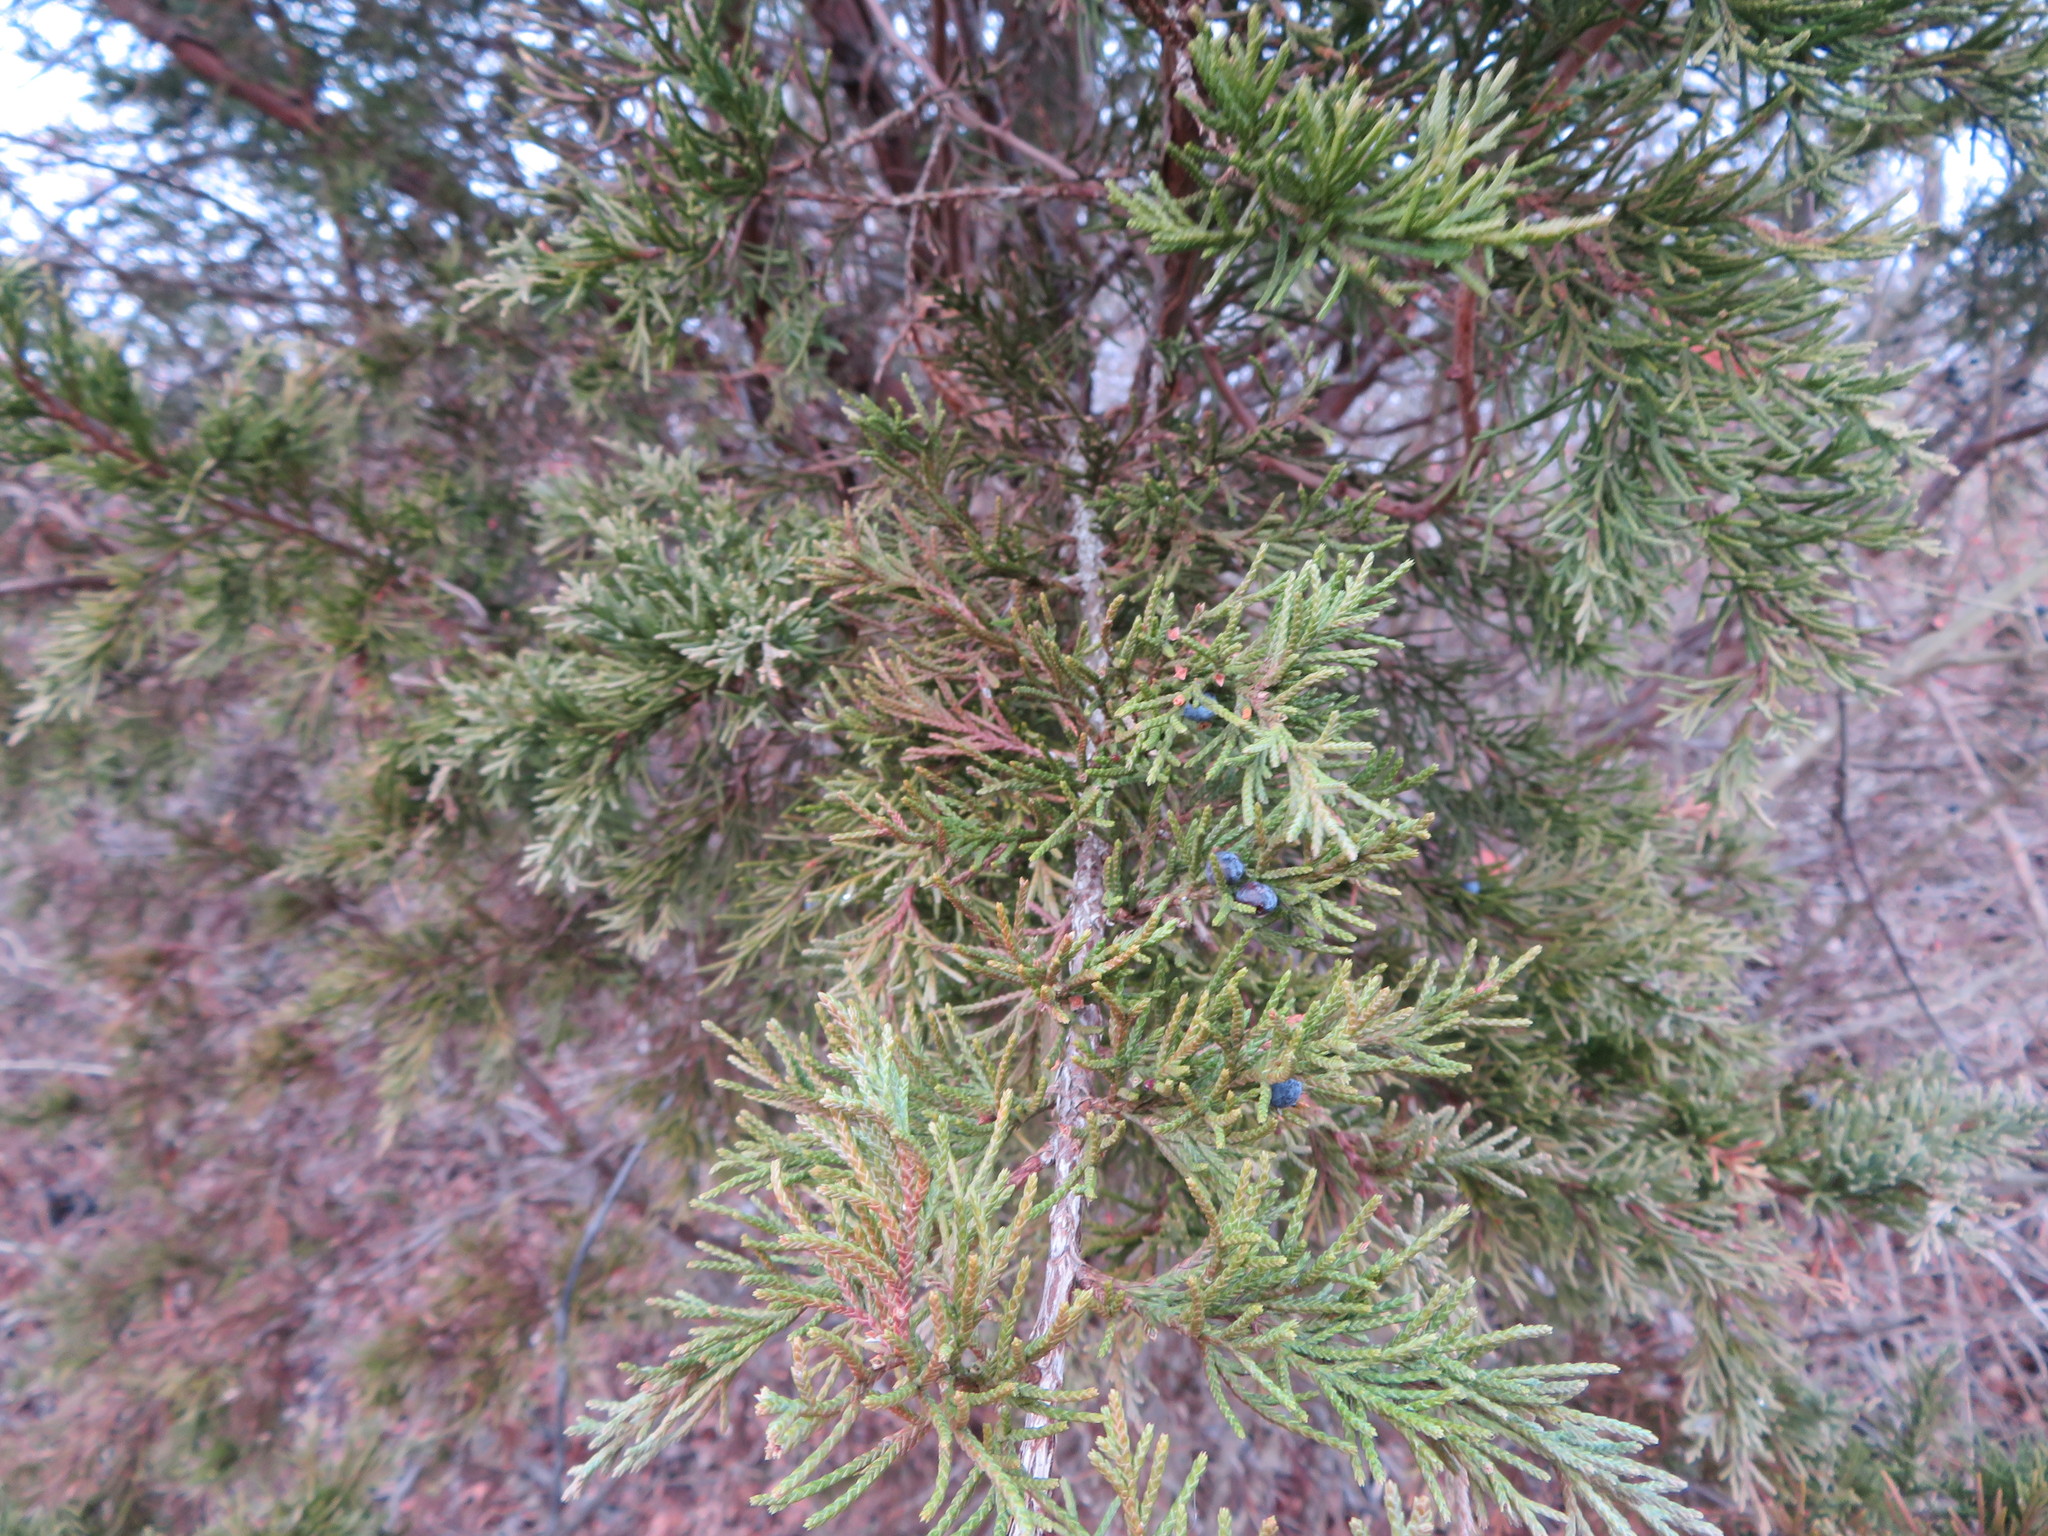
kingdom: Plantae
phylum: Tracheophyta
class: Pinopsida
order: Pinales
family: Cupressaceae
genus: Juniperus
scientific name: Juniperus virginiana
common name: Red juniper
